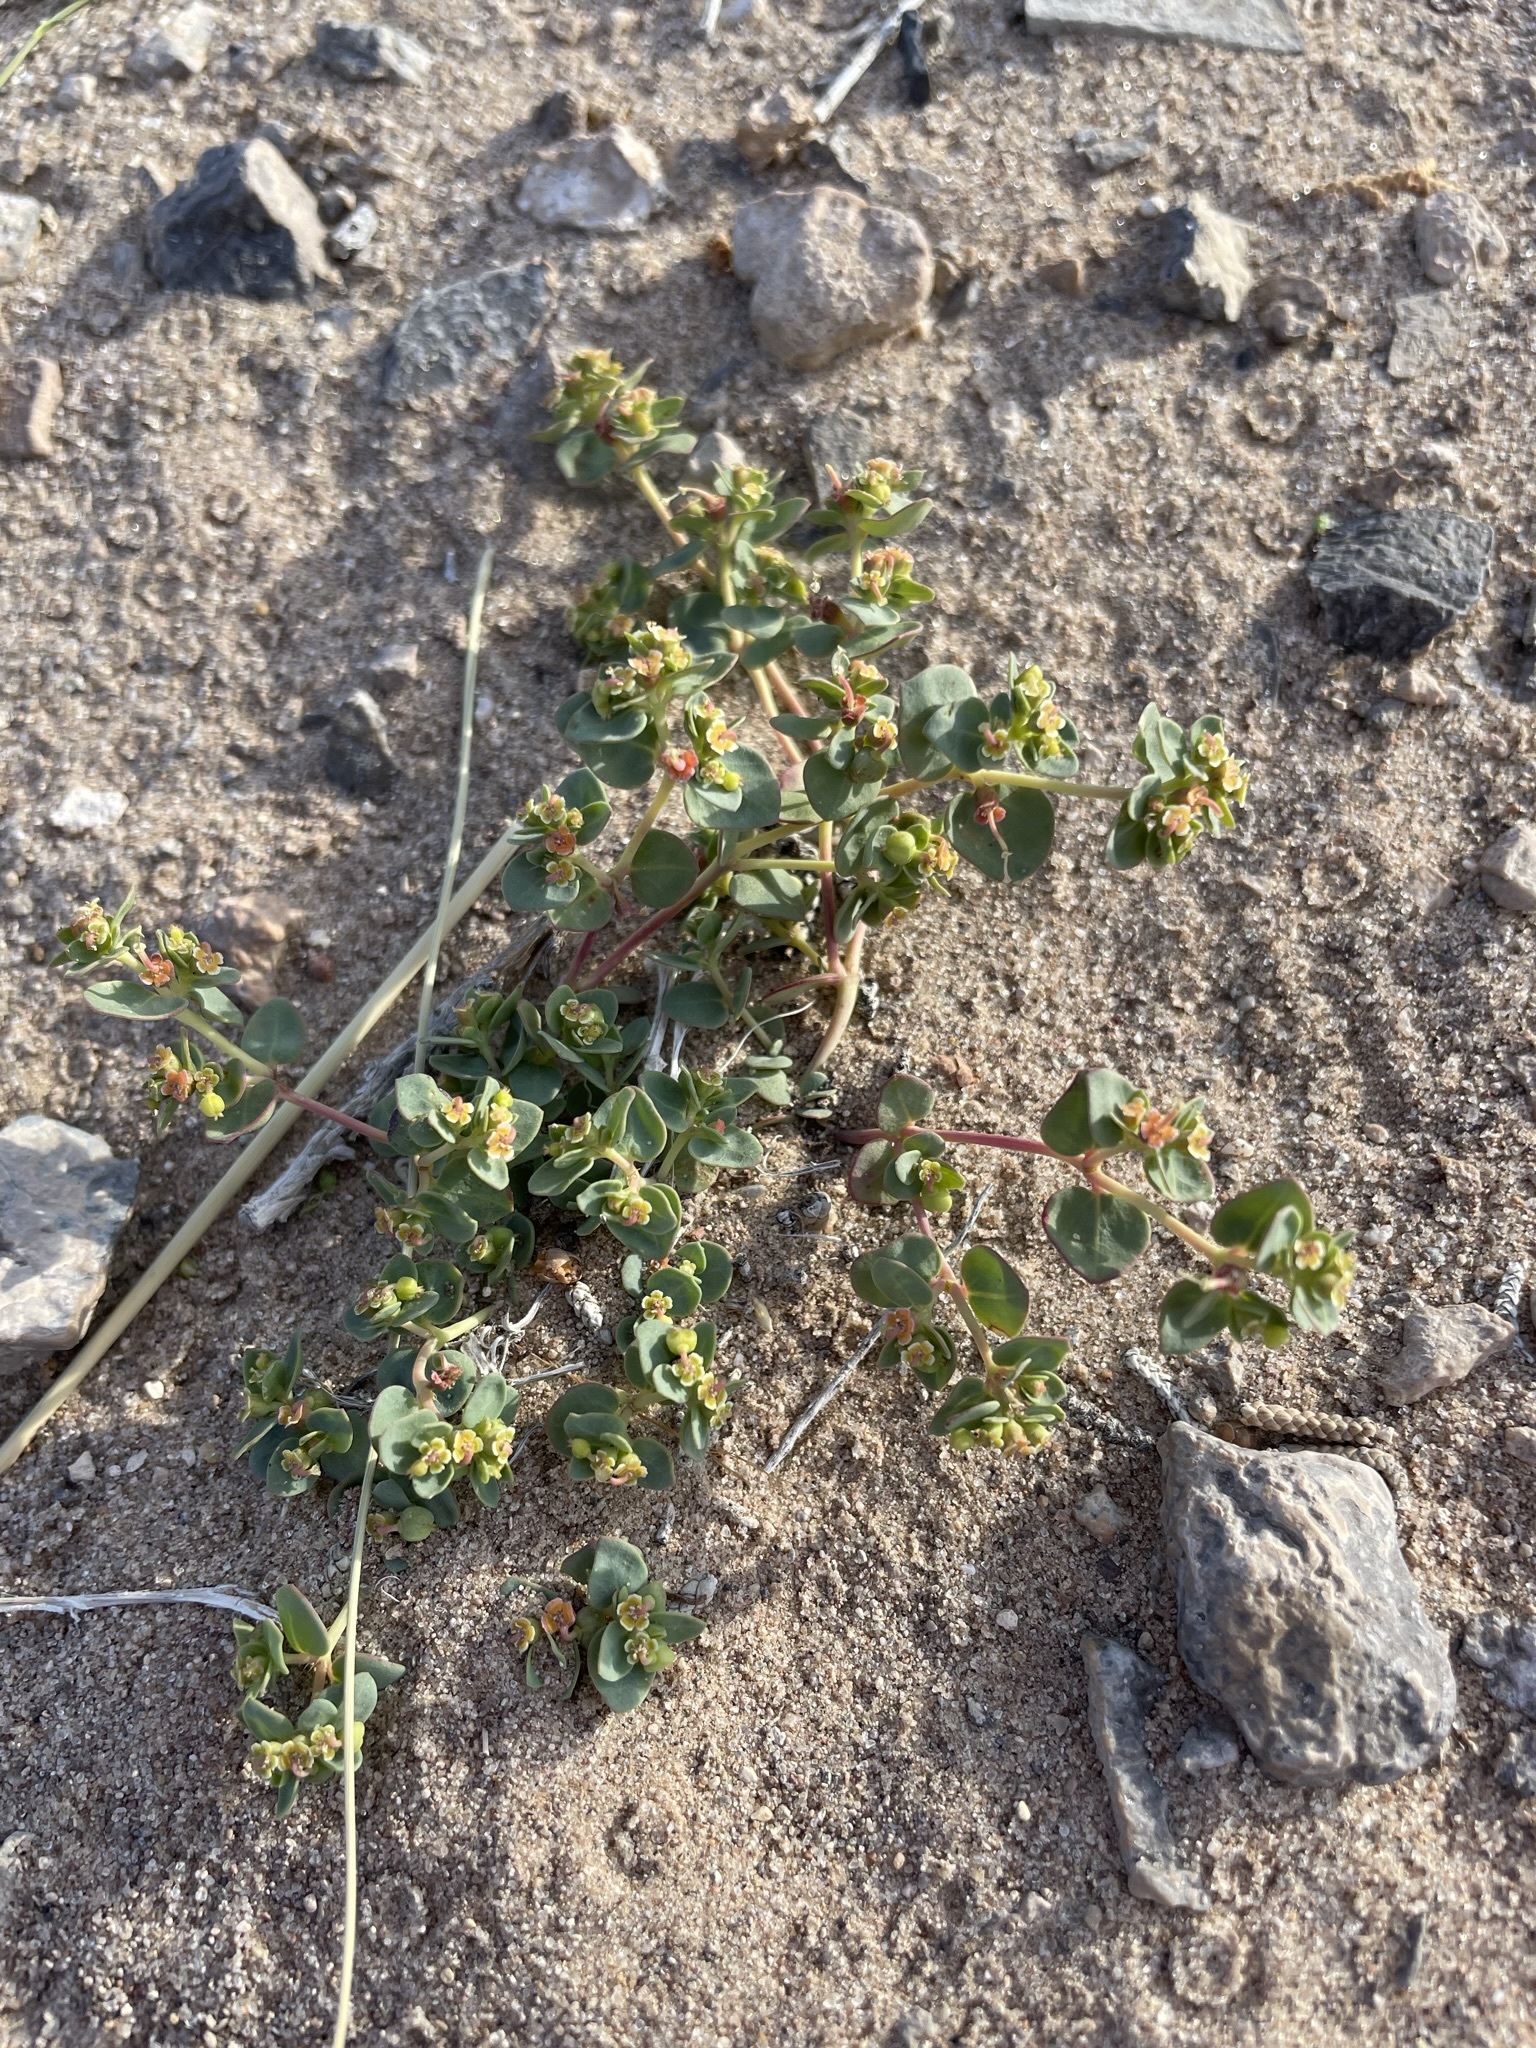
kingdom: Plantae
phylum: Tracheophyta
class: Magnoliopsida
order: Malpighiales
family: Euphorbiaceae
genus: Euphorbia
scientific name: Euphorbia fendleri
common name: Fendler's euphorbia
